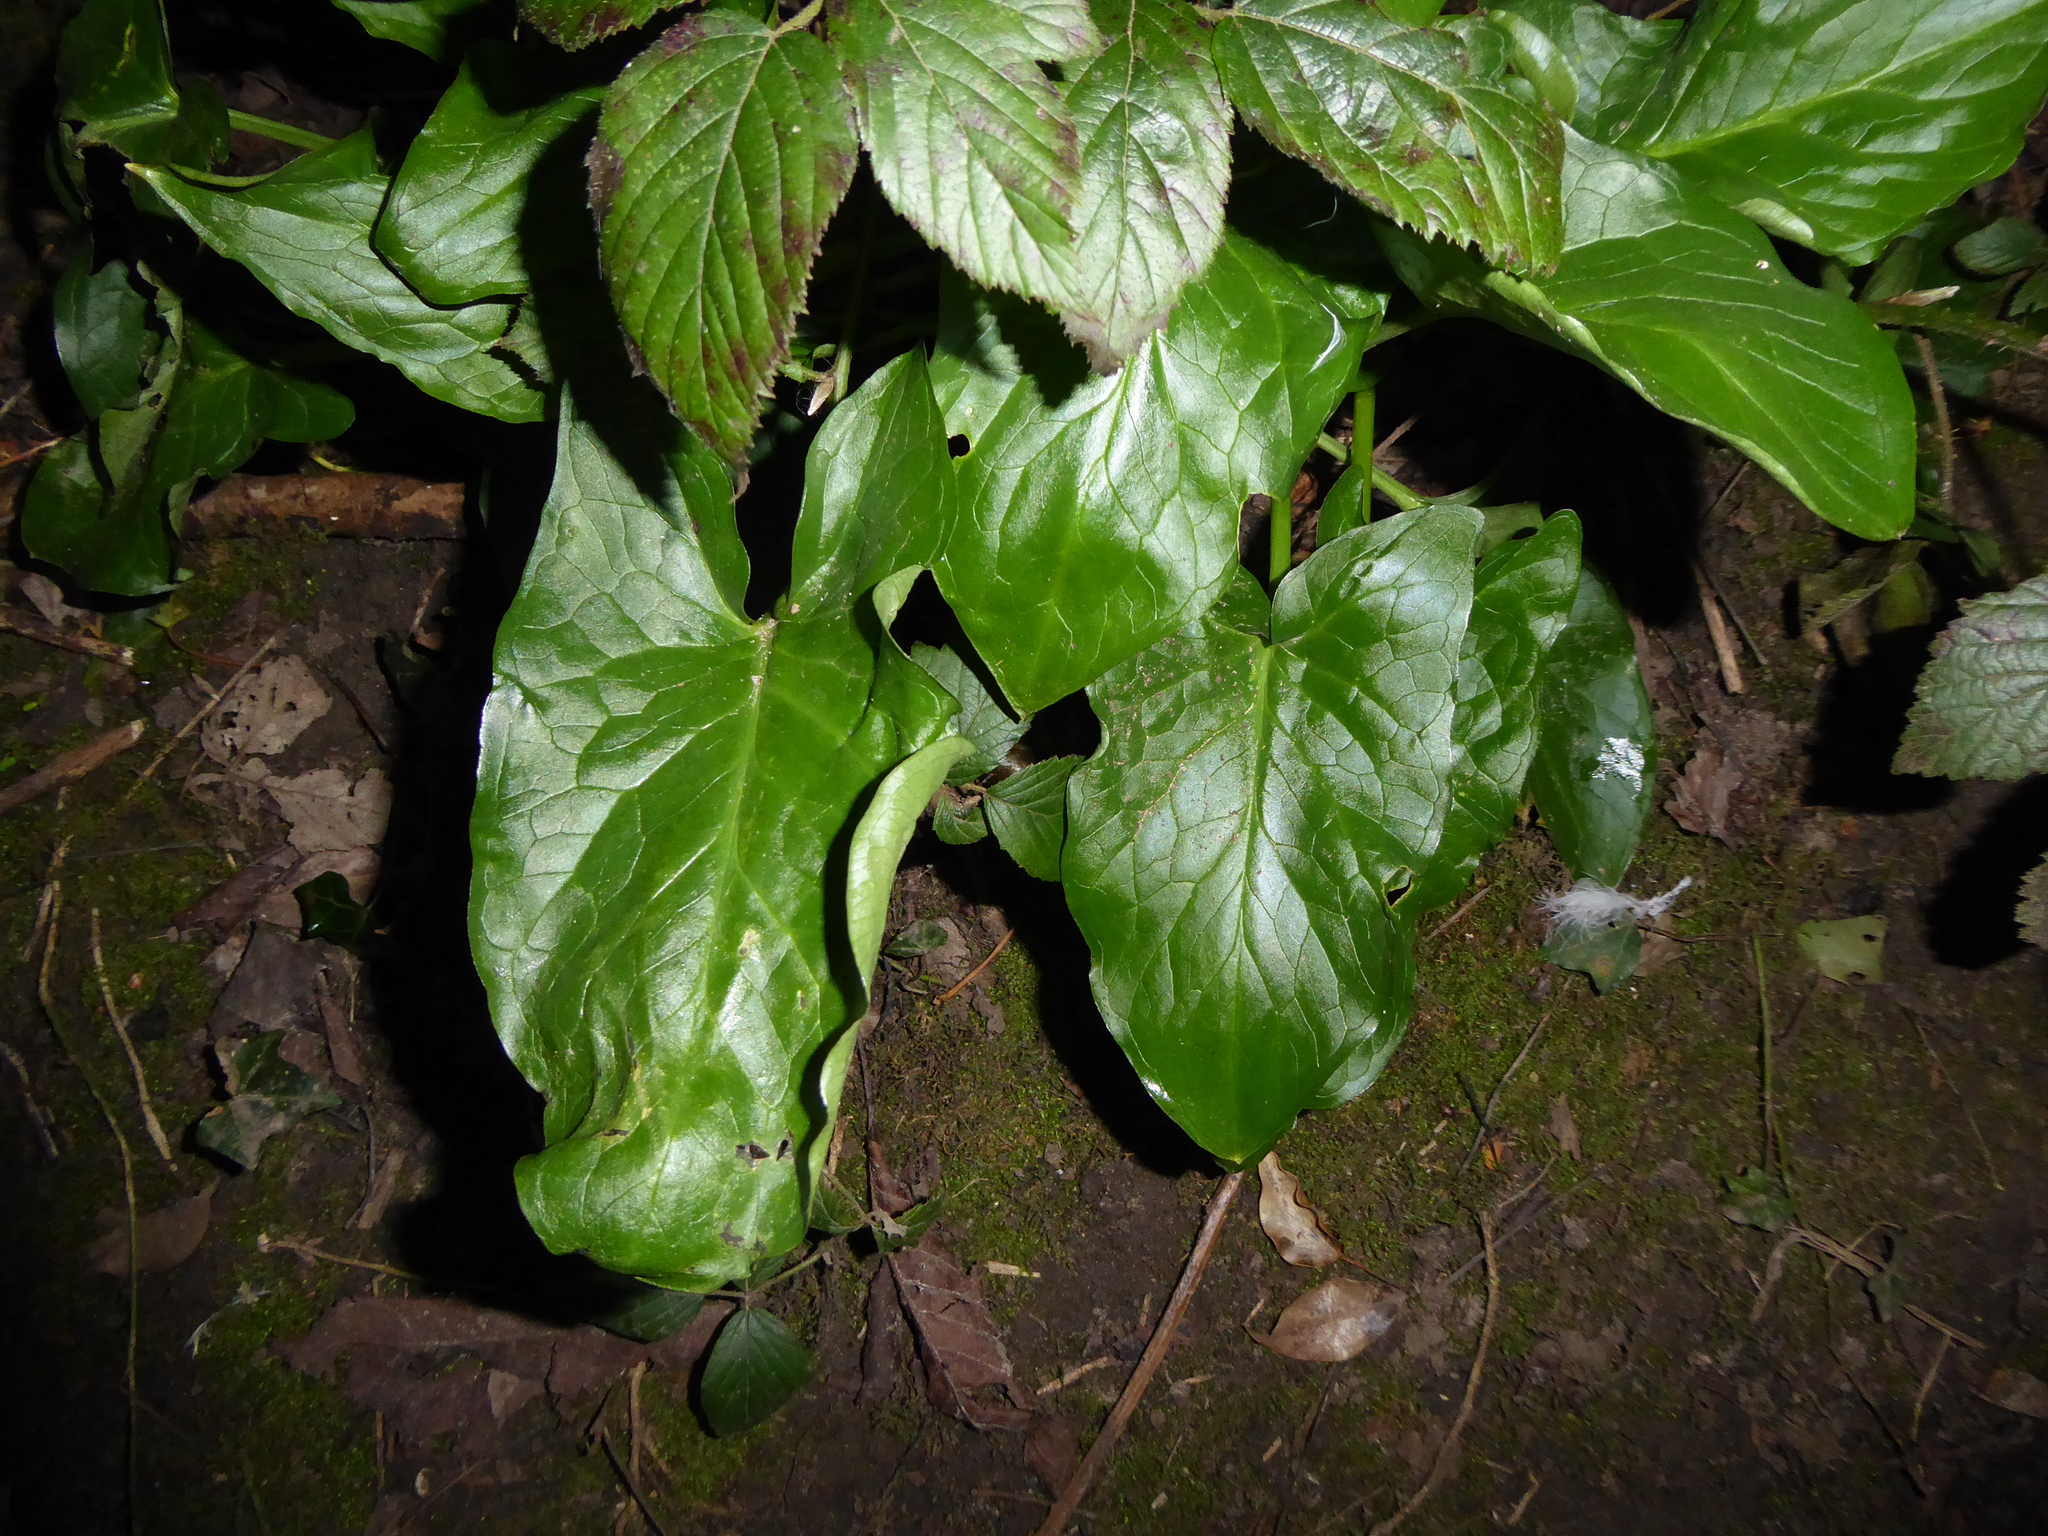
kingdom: Plantae
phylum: Tracheophyta
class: Liliopsida
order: Alismatales
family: Araceae
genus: Arum
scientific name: Arum maculatum
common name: Lords-and-ladies
